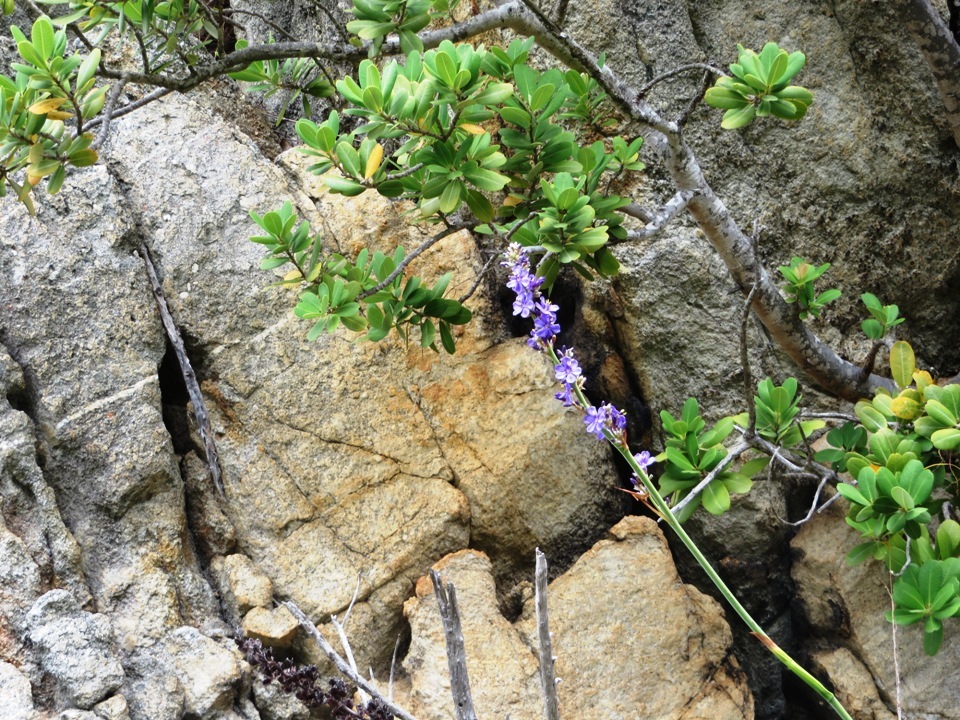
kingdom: Plantae
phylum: Tracheophyta
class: Liliopsida
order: Asparagales
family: Iridaceae
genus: Aristea
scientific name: Aristea capitata
